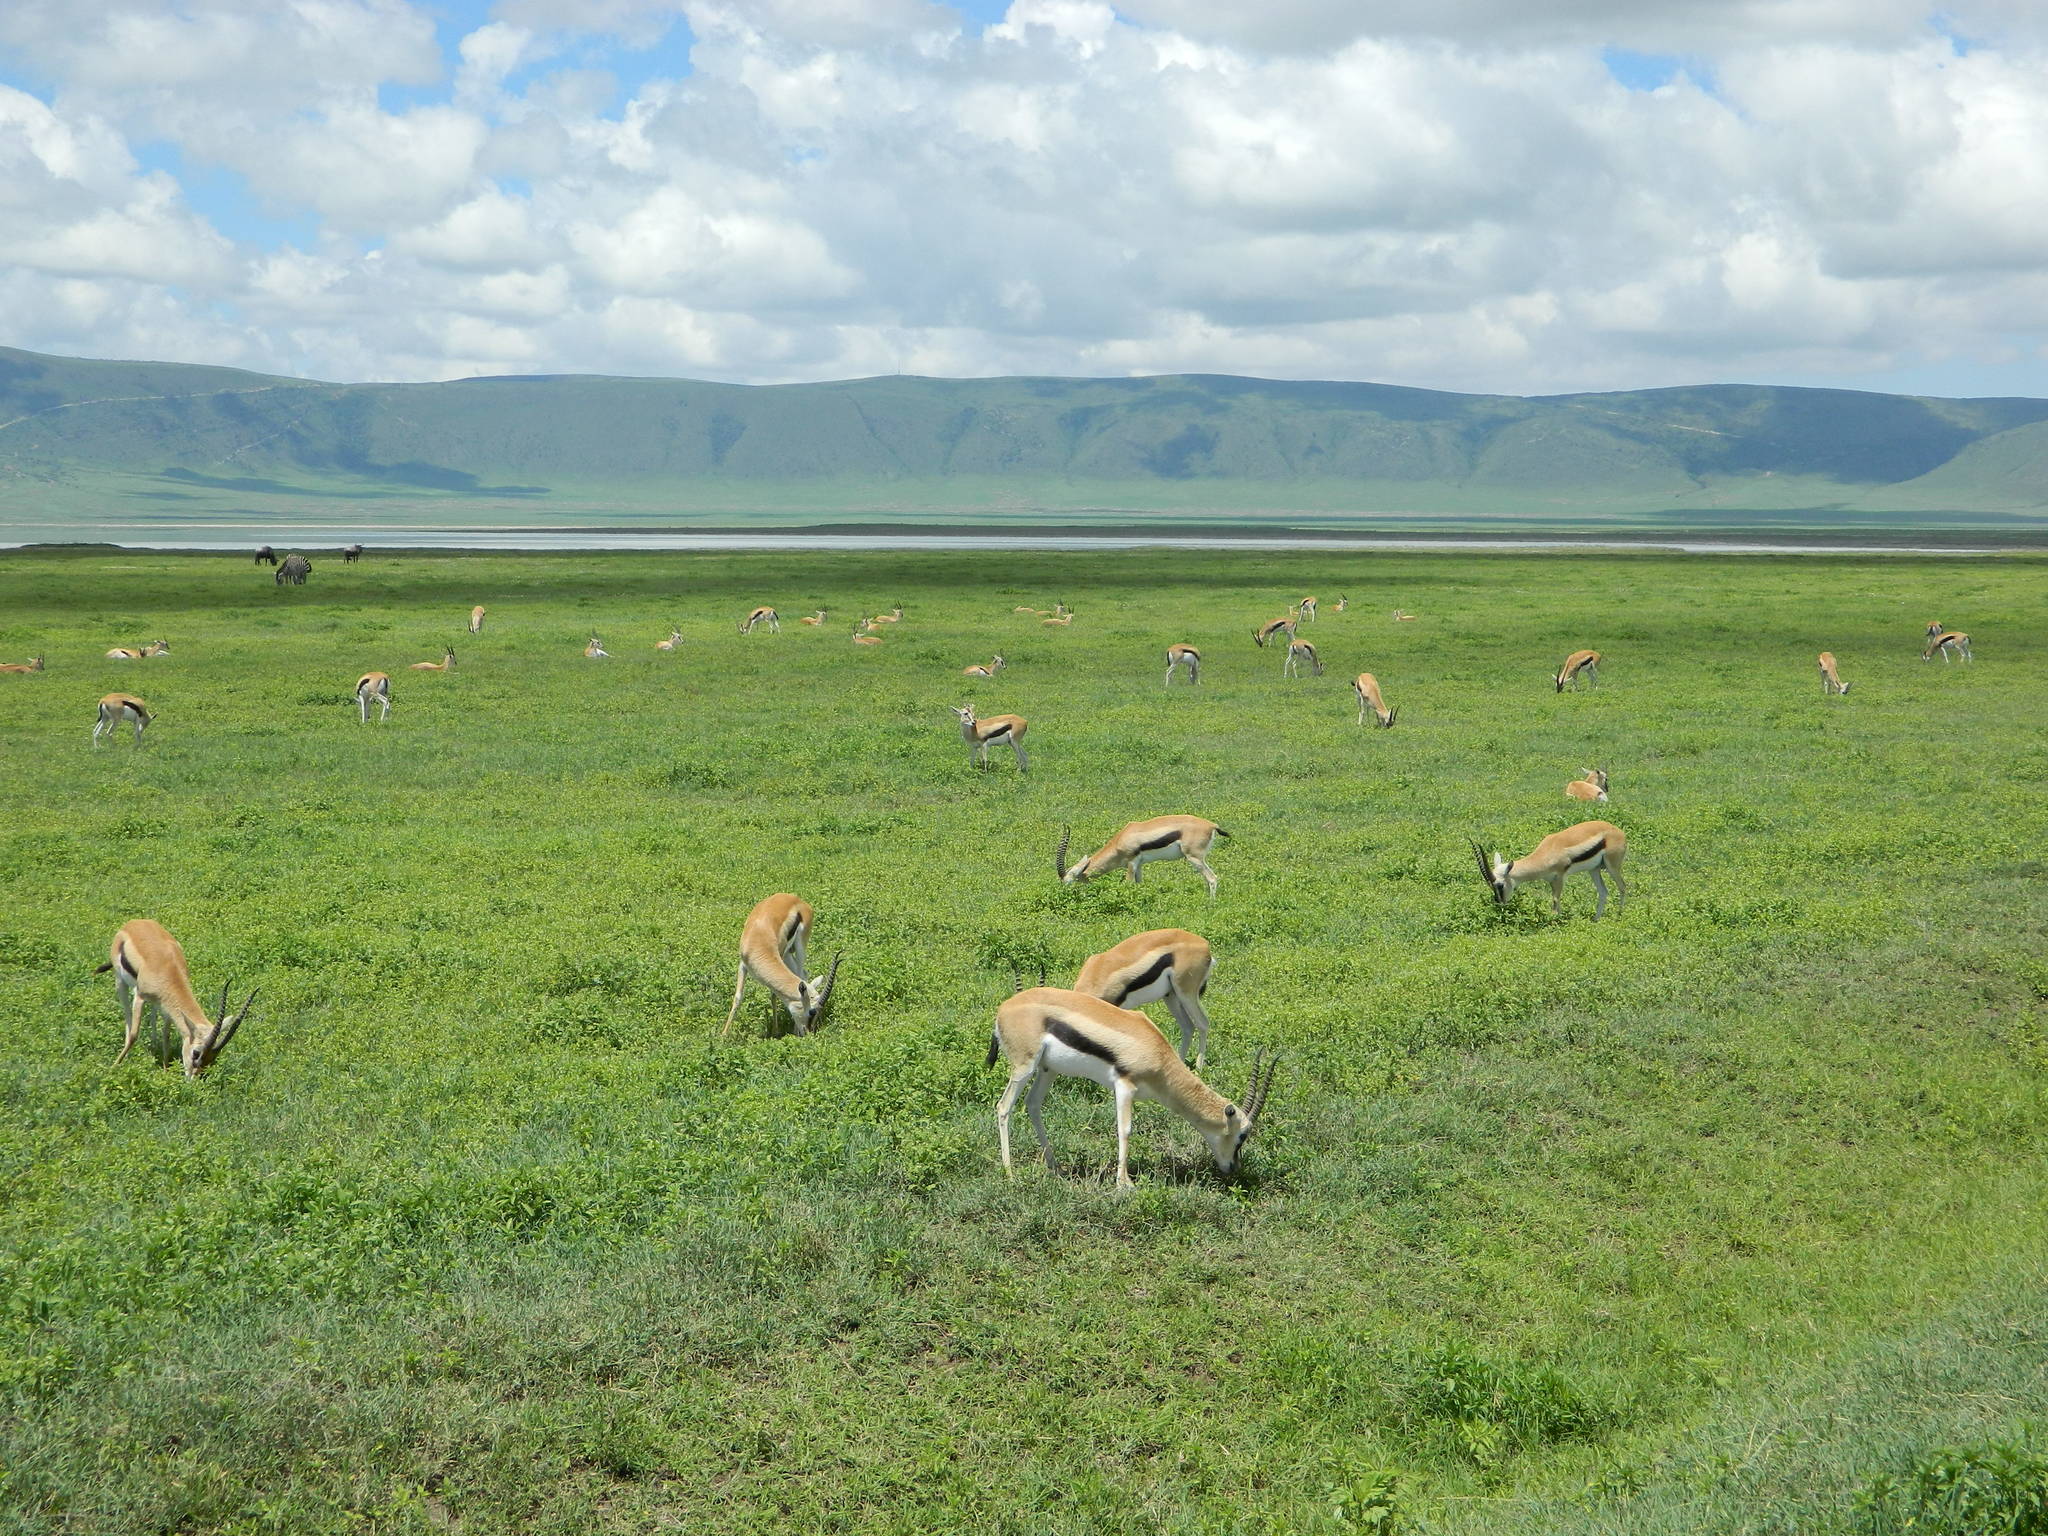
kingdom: Animalia
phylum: Chordata
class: Mammalia
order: Artiodactyla
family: Bovidae
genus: Eudorcas
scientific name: Eudorcas thomsonii
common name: Thomson's gazelle
